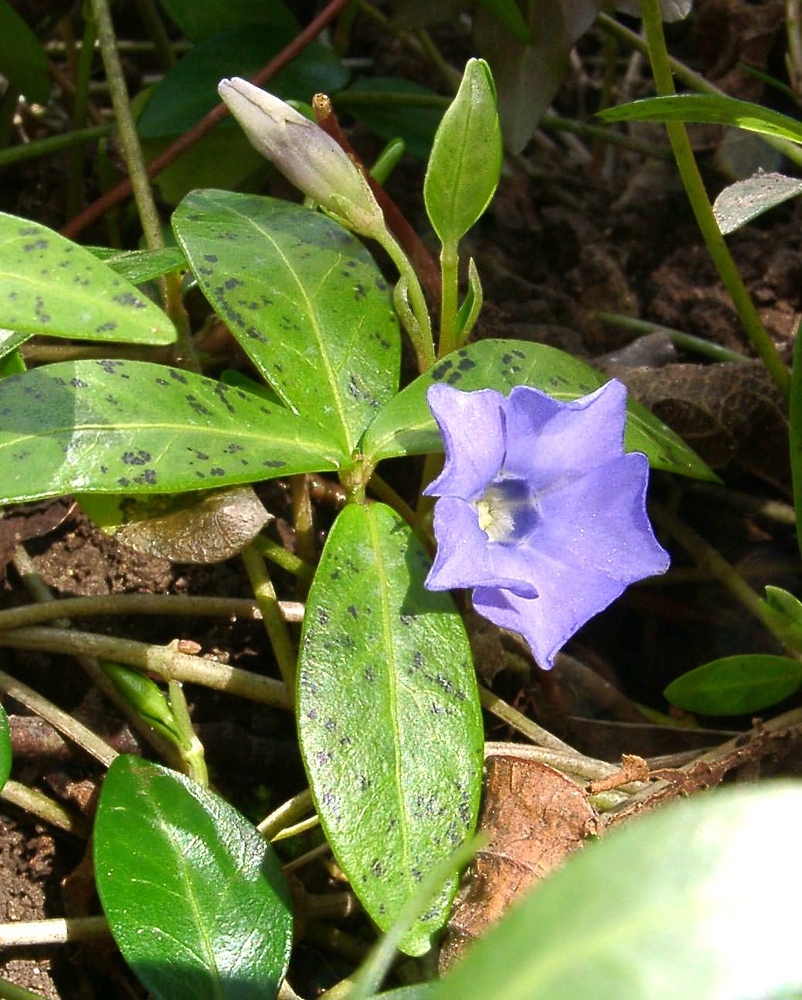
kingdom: Plantae
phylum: Tracheophyta
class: Magnoliopsida
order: Gentianales
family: Apocynaceae
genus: Vinca
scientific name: Vinca minor
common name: Lesser periwinkle
